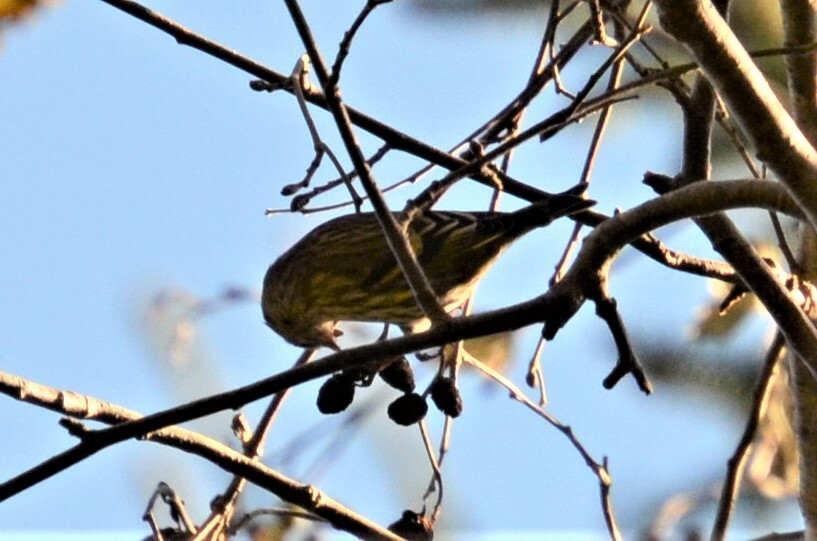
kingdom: Animalia
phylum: Chordata
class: Aves
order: Passeriformes
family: Fringillidae
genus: Spinus
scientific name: Spinus spinus
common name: Eurasian siskin
